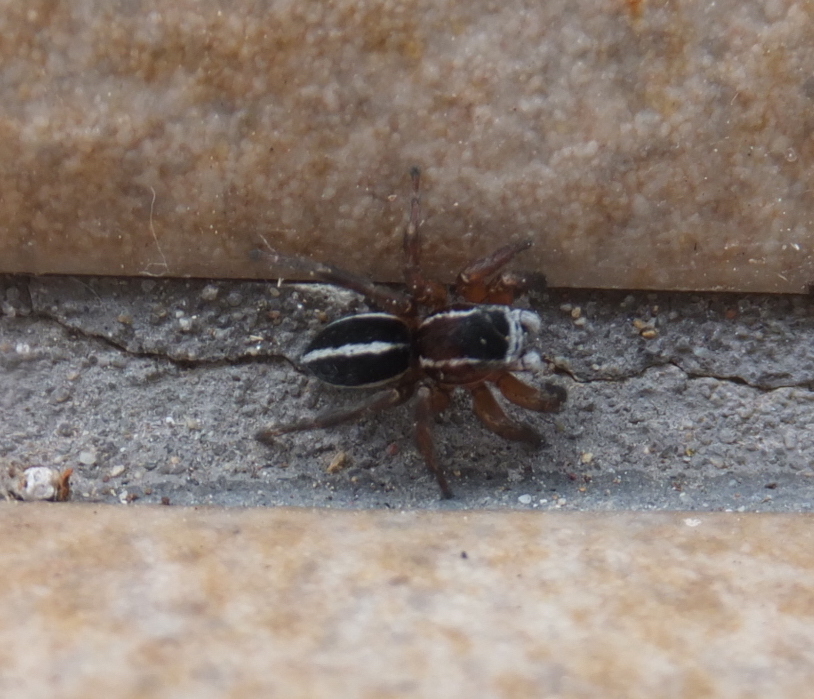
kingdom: Animalia
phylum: Arthropoda
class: Arachnida
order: Araneae
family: Salticidae
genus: Phlegra
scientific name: Phlegra fasciata
